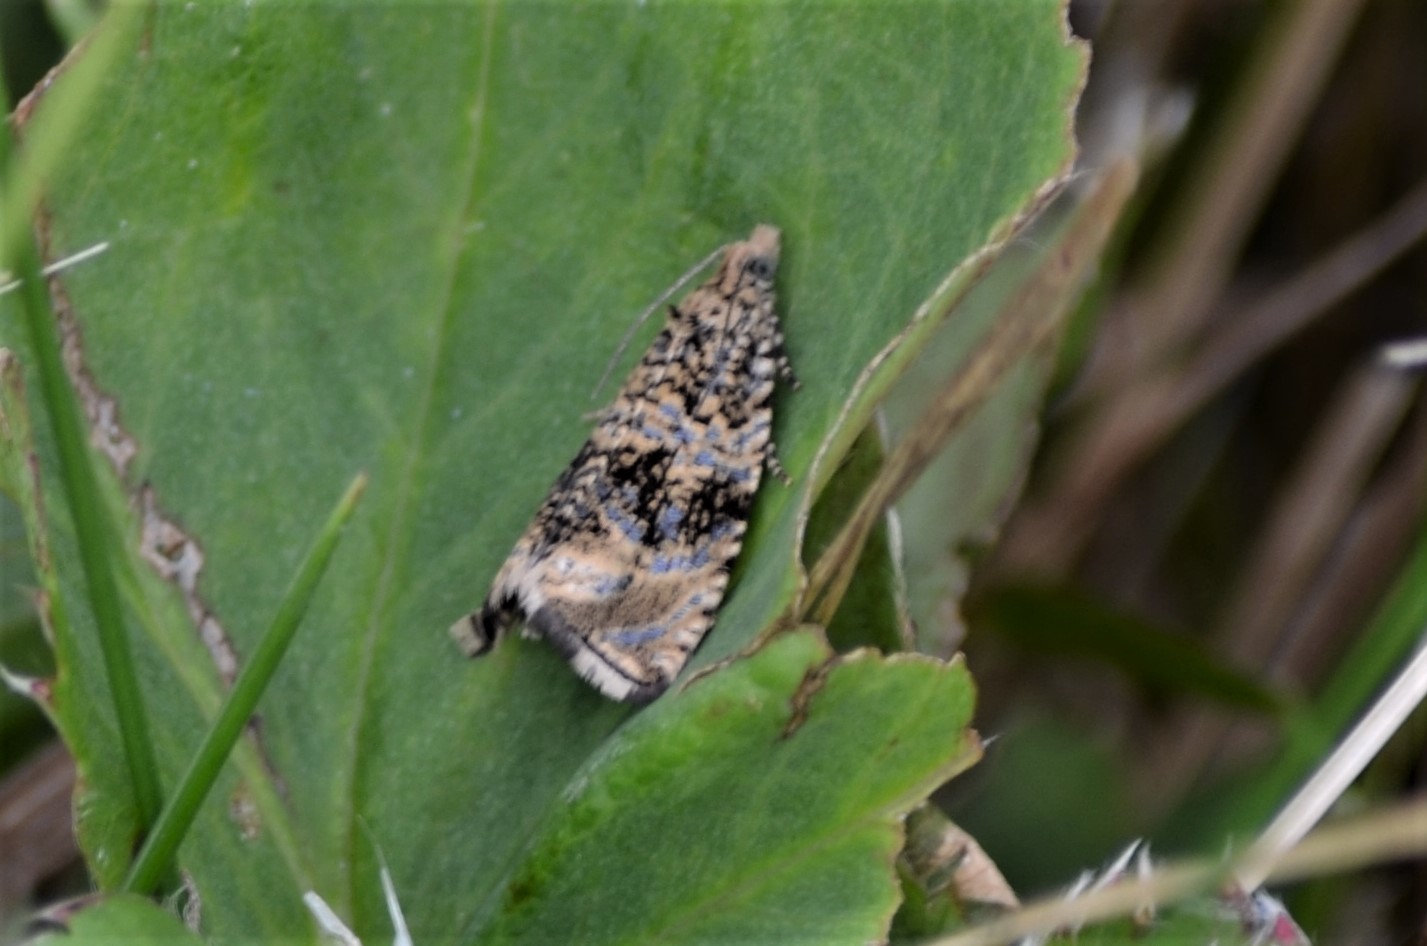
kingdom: Animalia
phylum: Arthropoda
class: Insecta
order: Lepidoptera
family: Tortricidae
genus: Syricoris
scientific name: Syricoris lacunana
